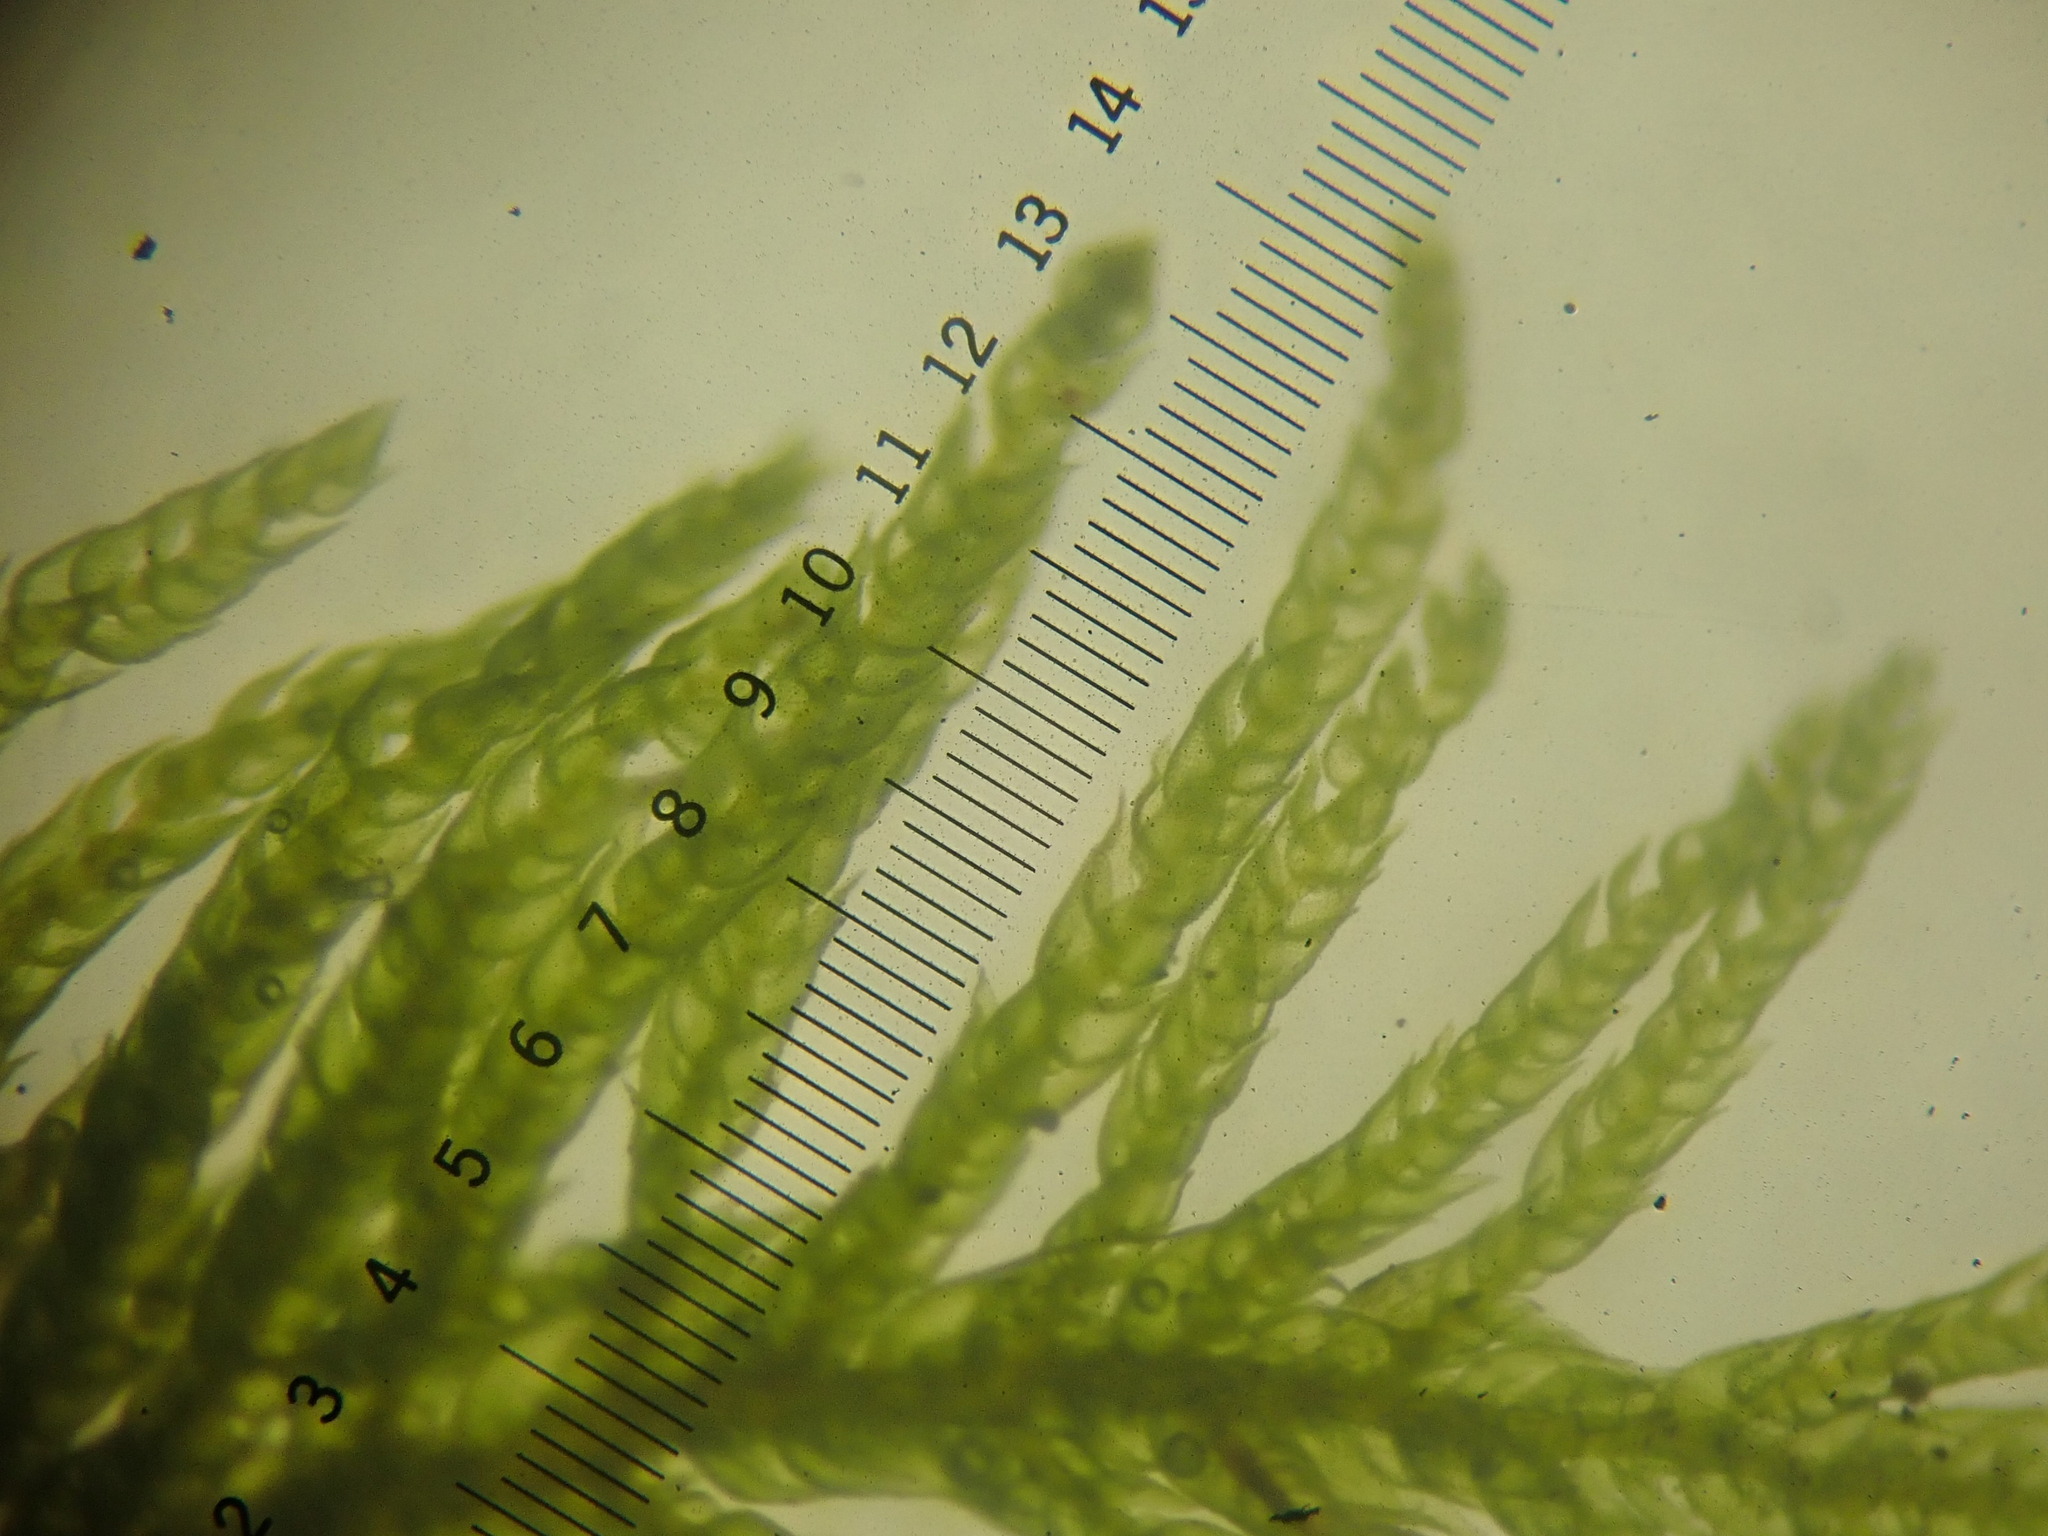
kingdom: Plantae
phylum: Bryophyta
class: Bryopsida
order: Hypnales
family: Thuidiaceae
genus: Thuidium
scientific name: Thuidium delicatulum
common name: Delicate fern moss
